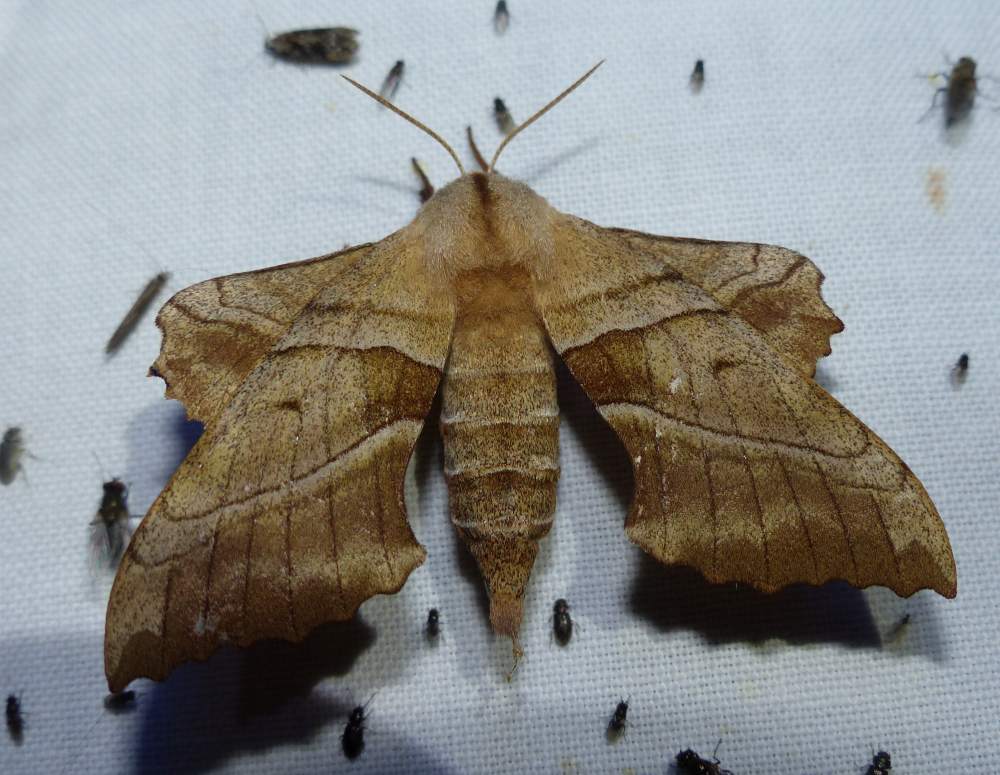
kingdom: Animalia
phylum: Arthropoda
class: Insecta
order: Lepidoptera
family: Sphingidae
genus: Amorpha
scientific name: Amorpha juglandis
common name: Walnut sphinx
